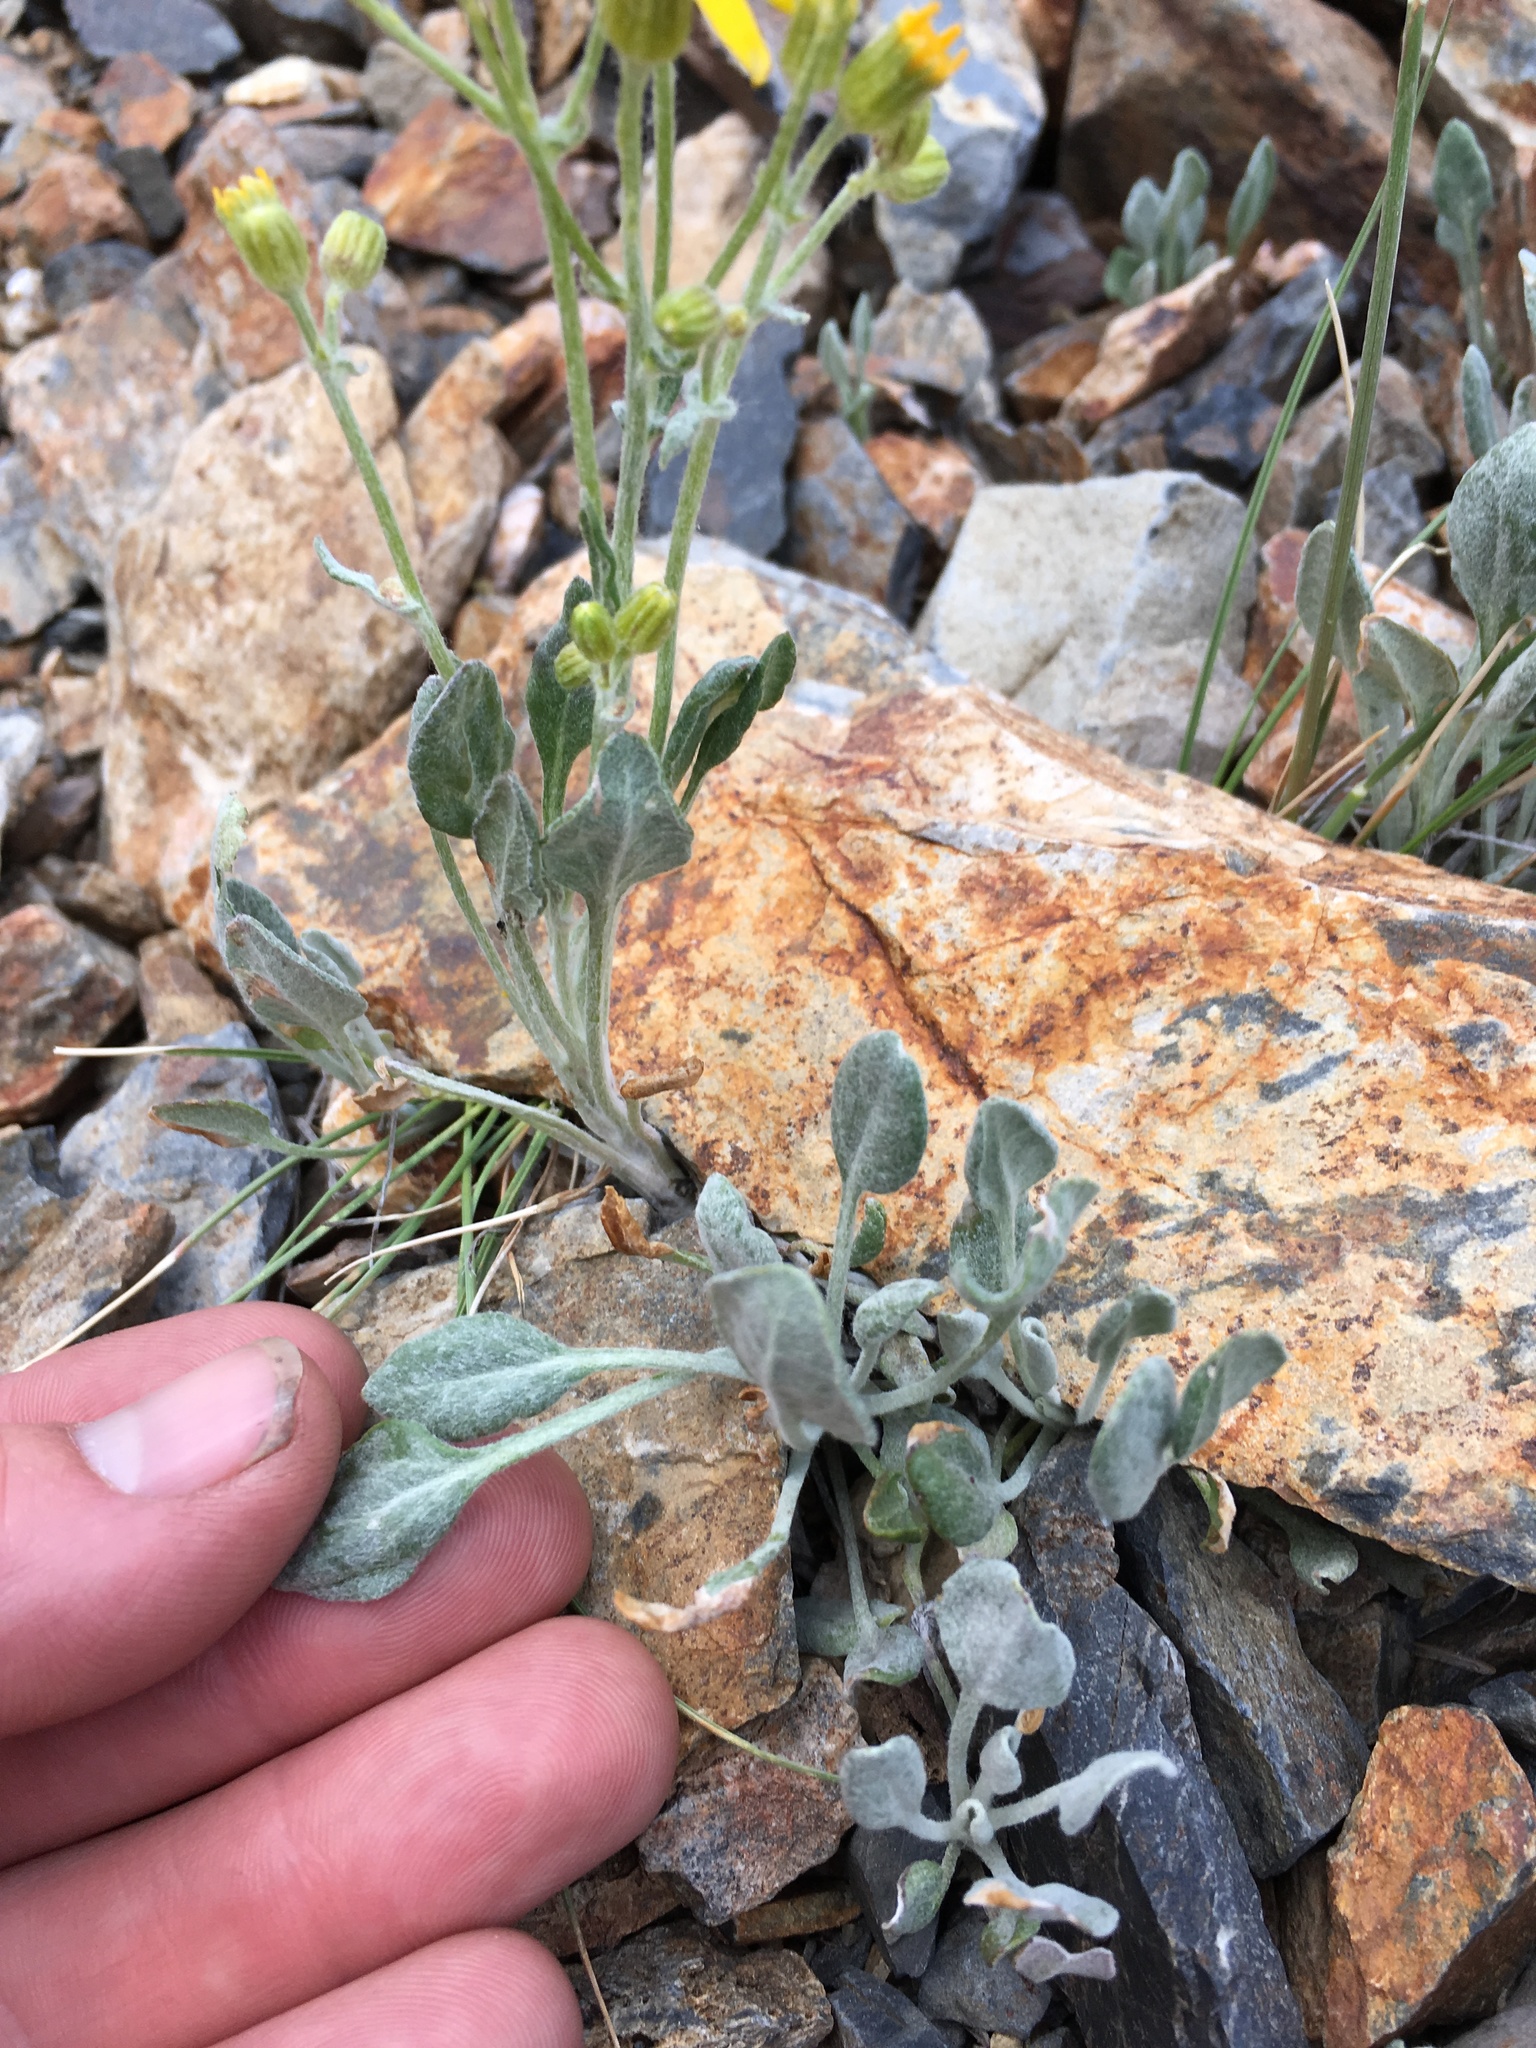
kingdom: Plantae
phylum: Tracheophyta
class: Magnoliopsida
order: Asterales
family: Asteraceae
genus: Packera
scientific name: Packera cana
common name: Woolly groundsel
